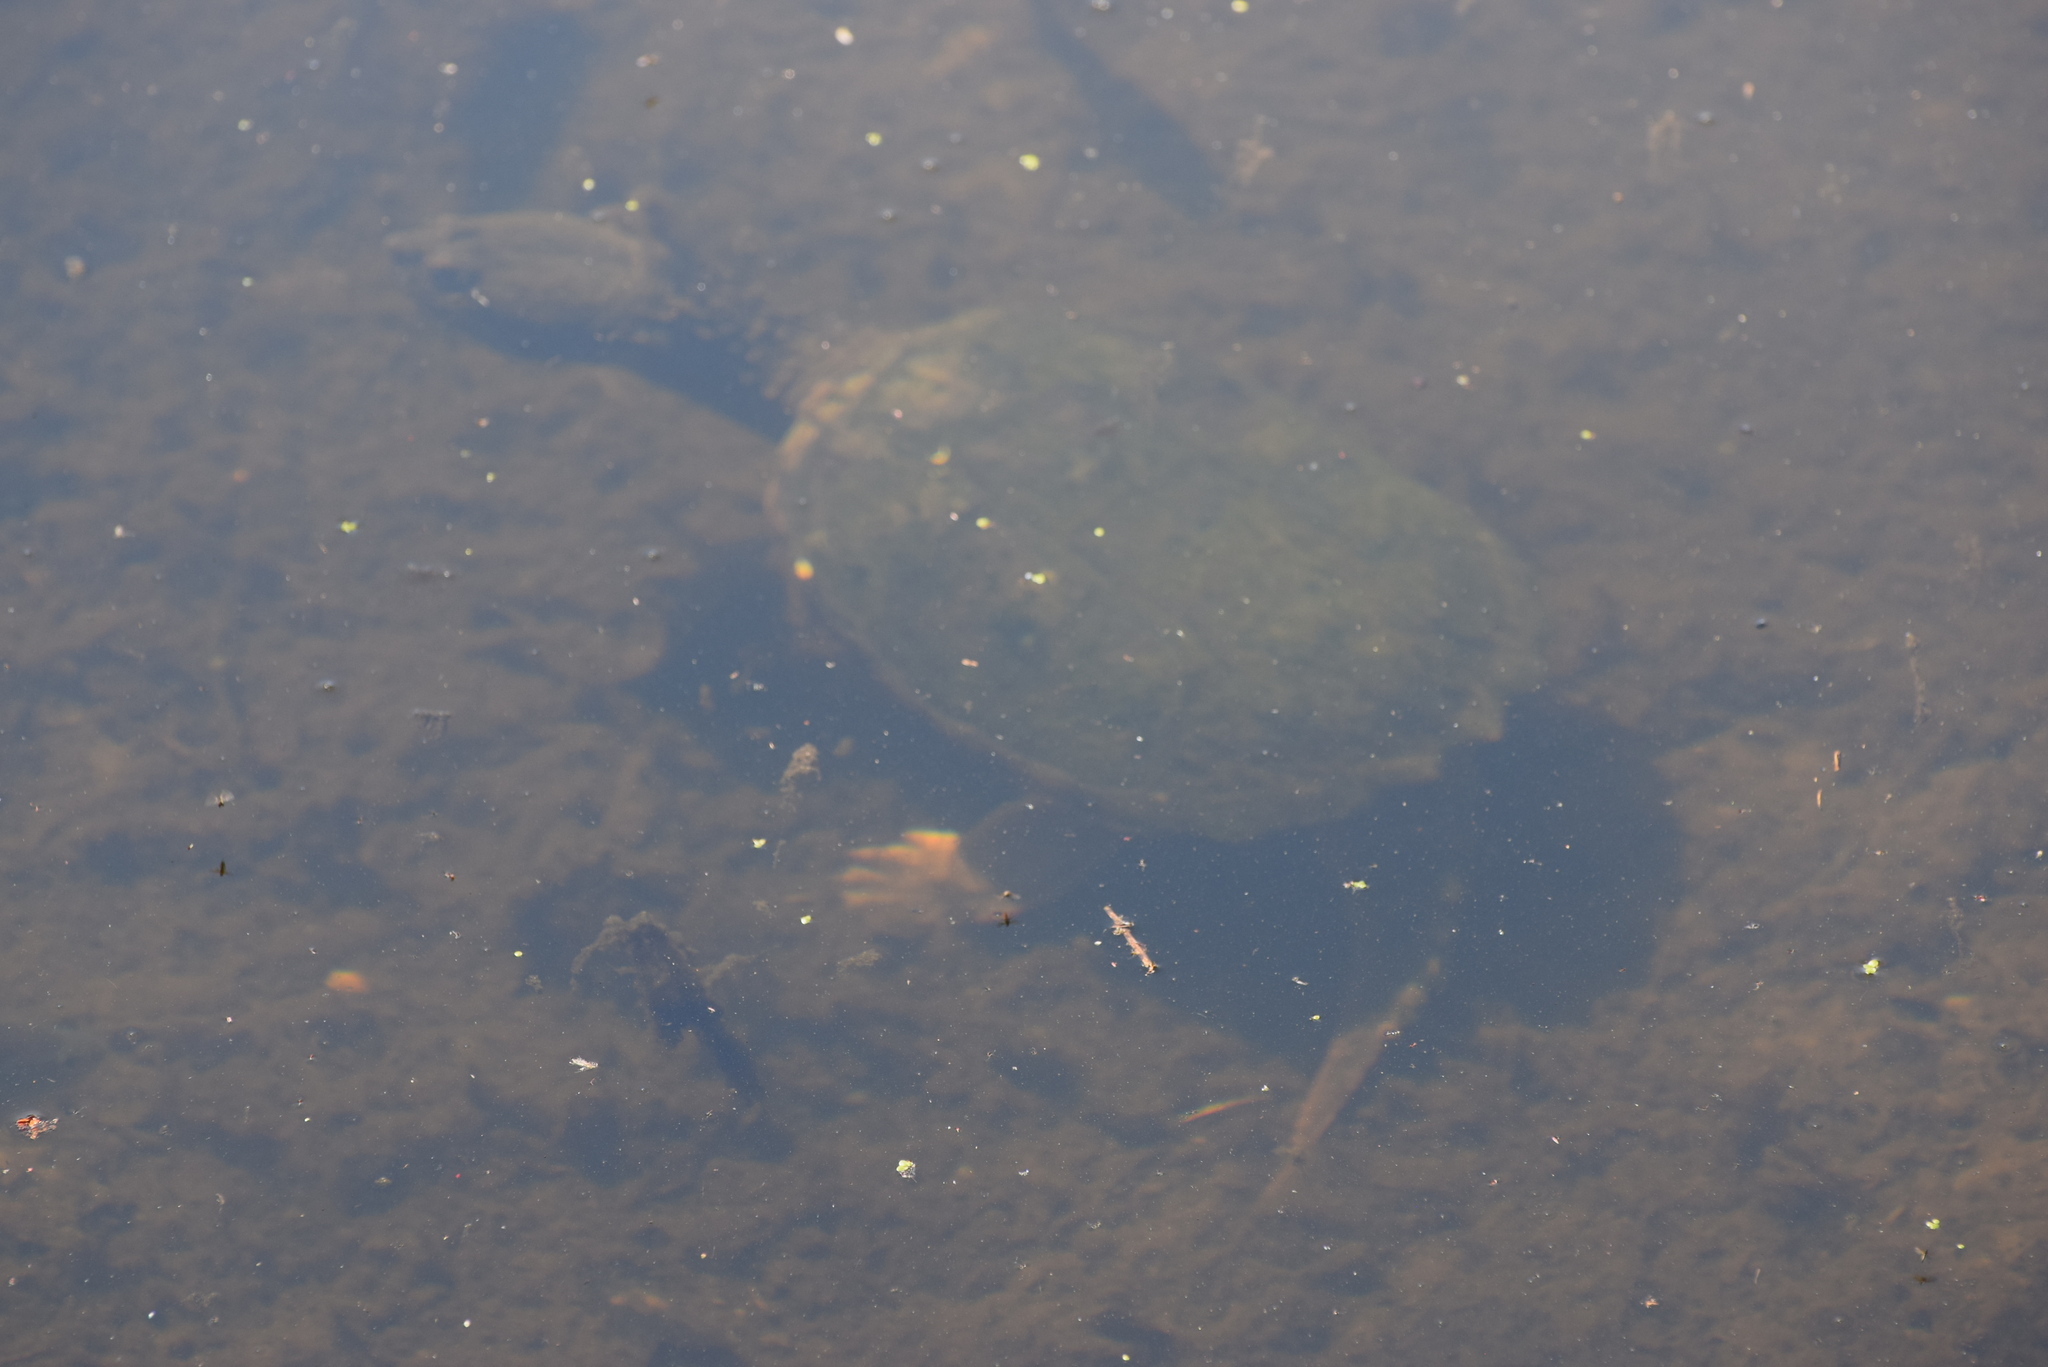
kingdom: Animalia
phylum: Chordata
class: Testudines
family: Chelydridae
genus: Chelydra
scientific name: Chelydra serpentina
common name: Common snapping turtle
